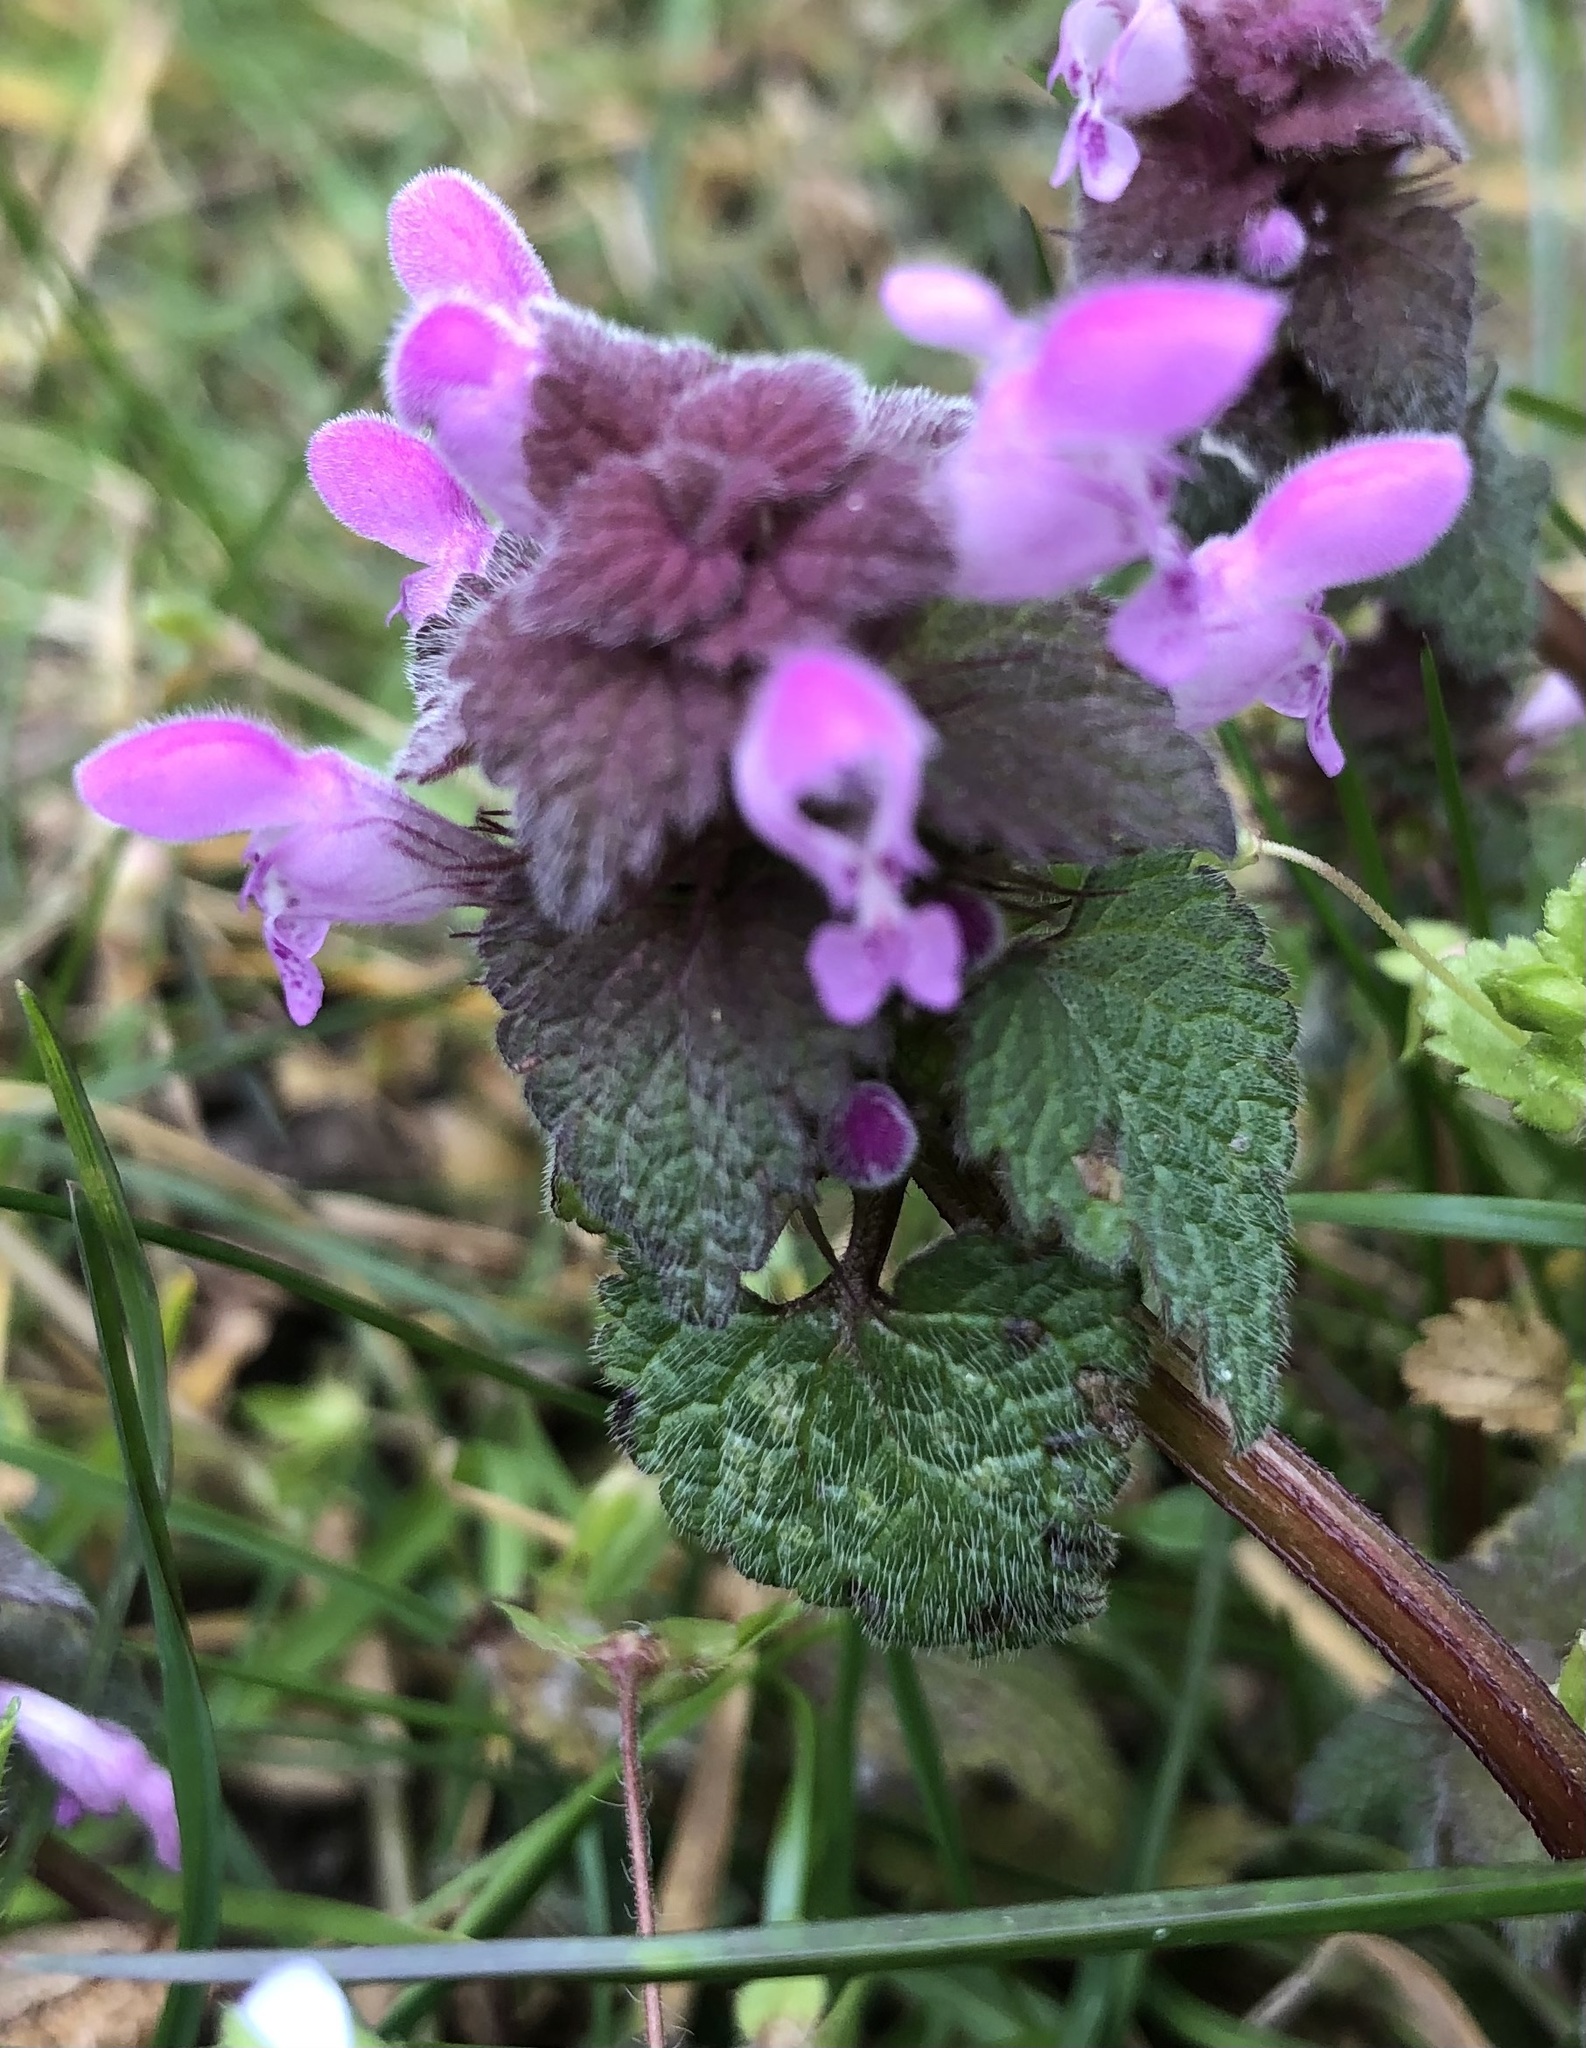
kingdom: Plantae
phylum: Tracheophyta
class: Magnoliopsida
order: Lamiales
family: Lamiaceae
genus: Lamium
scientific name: Lamium purpureum
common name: Red dead-nettle
